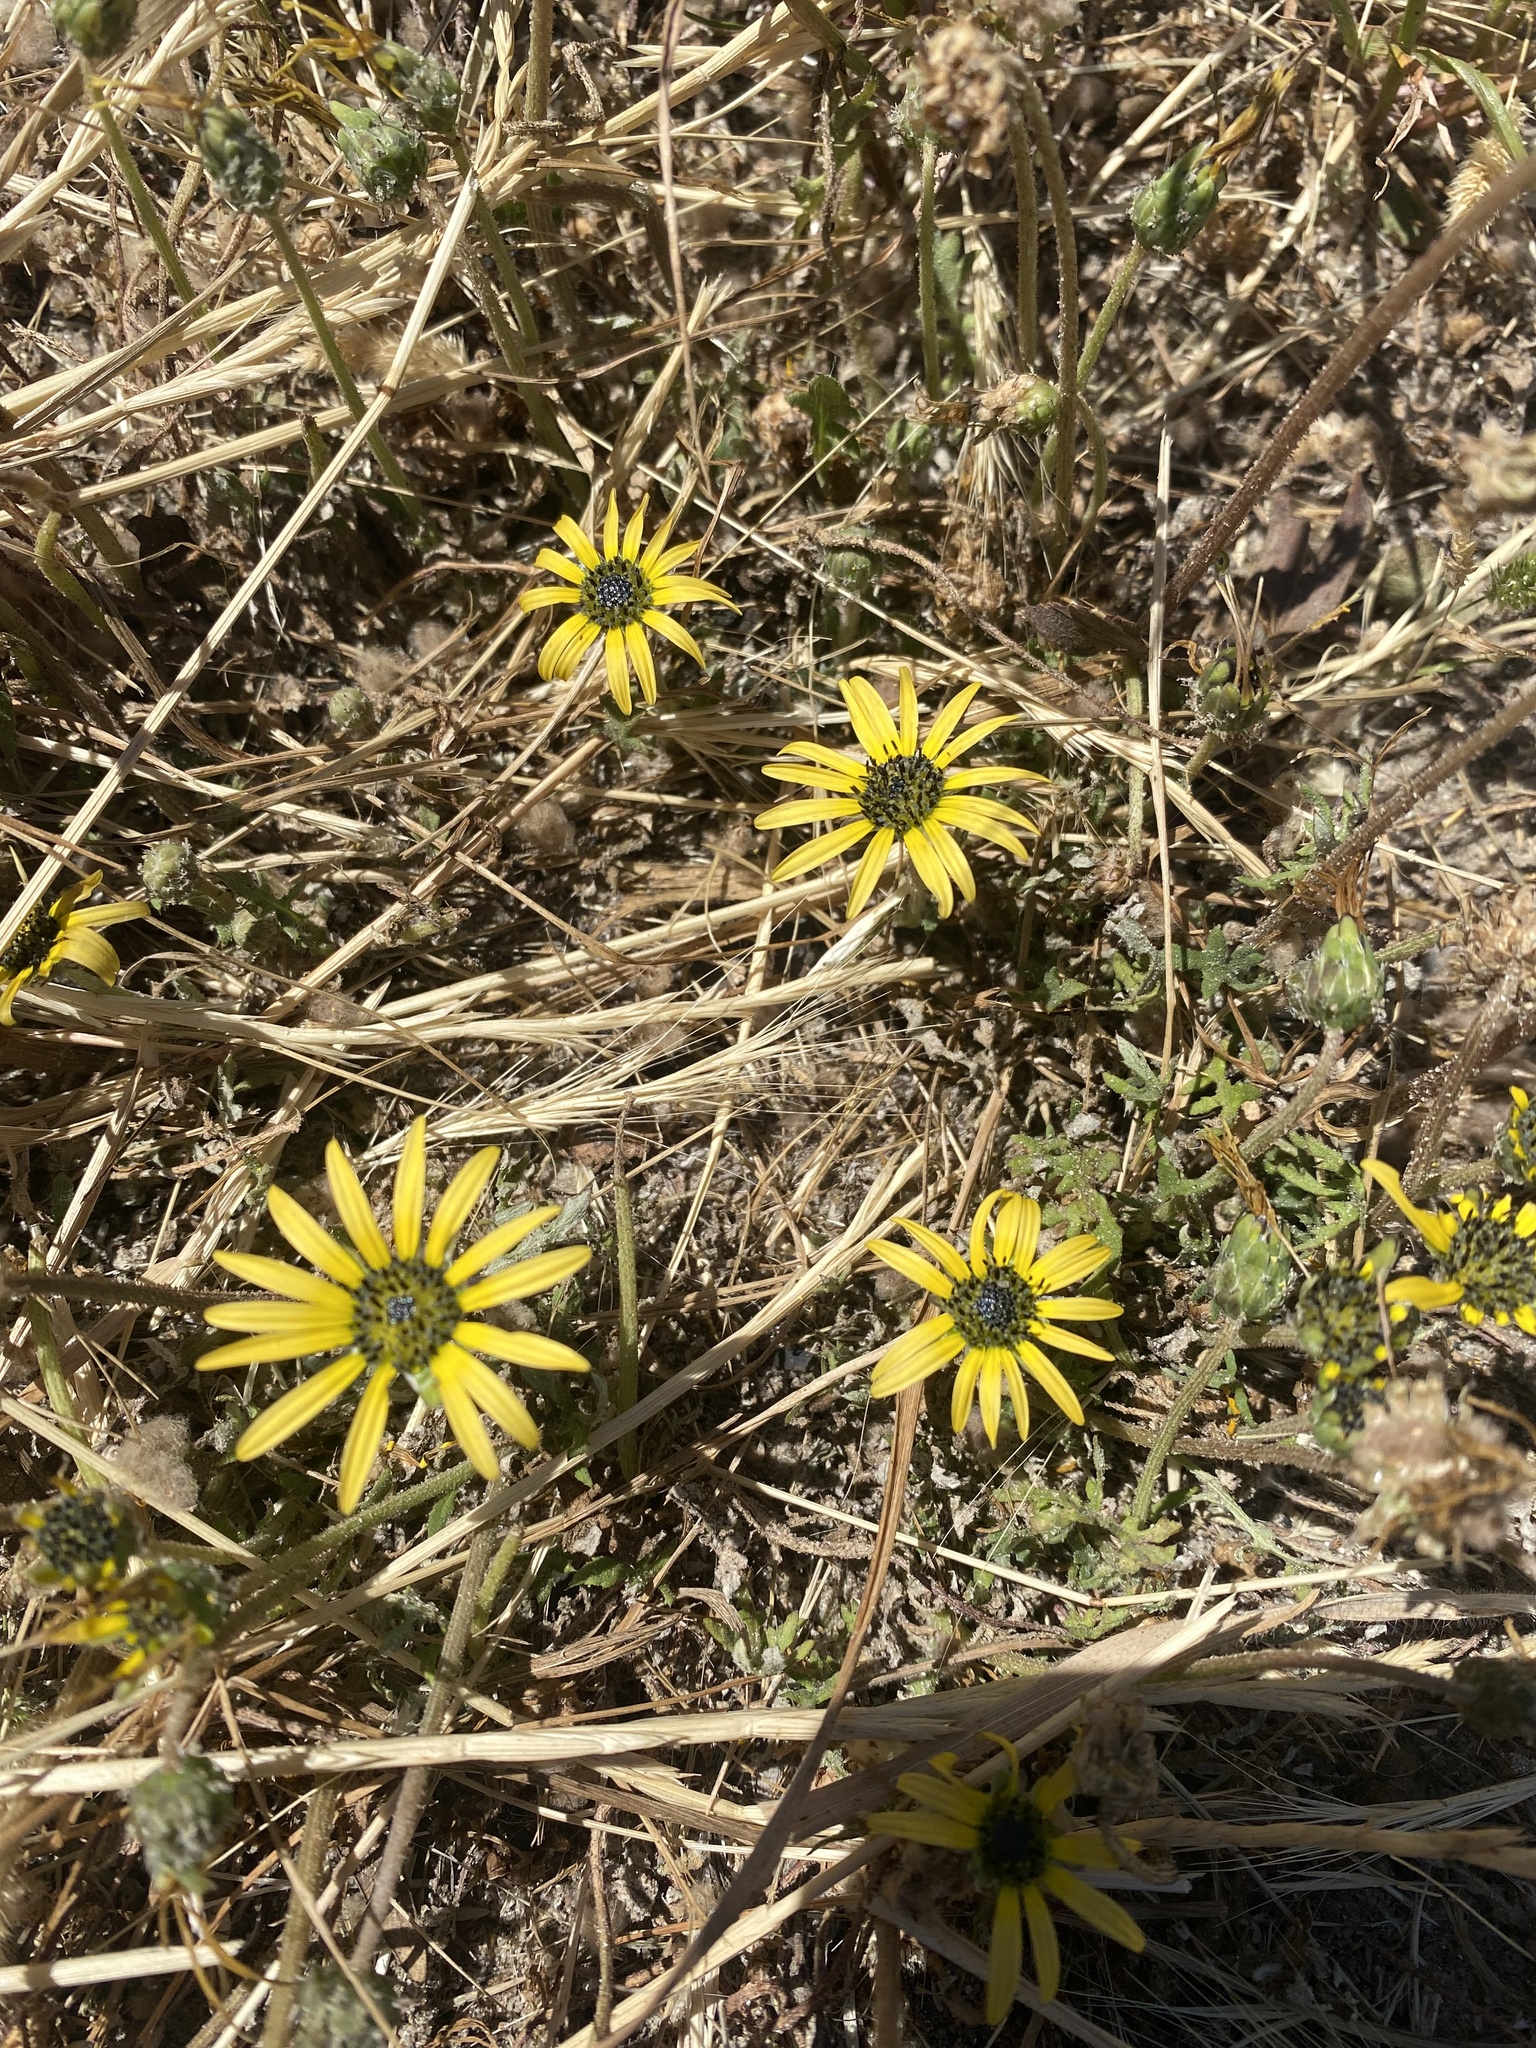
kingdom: Plantae
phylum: Tracheophyta
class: Magnoliopsida
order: Asterales
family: Asteraceae
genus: Arctotheca
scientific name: Arctotheca calendula
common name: Capeweed
